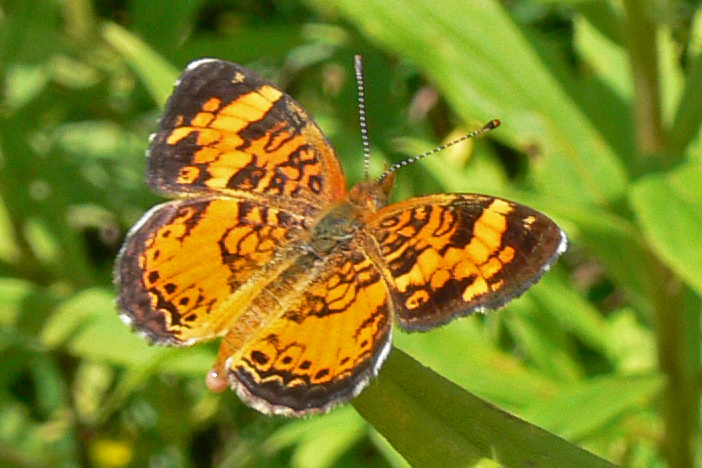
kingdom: Animalia
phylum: Arthropoda
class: Insecta
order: Lepidoptera
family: Nymphalidae
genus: Phyciodes
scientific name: Phyciodes tharos
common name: Pearl crescent
